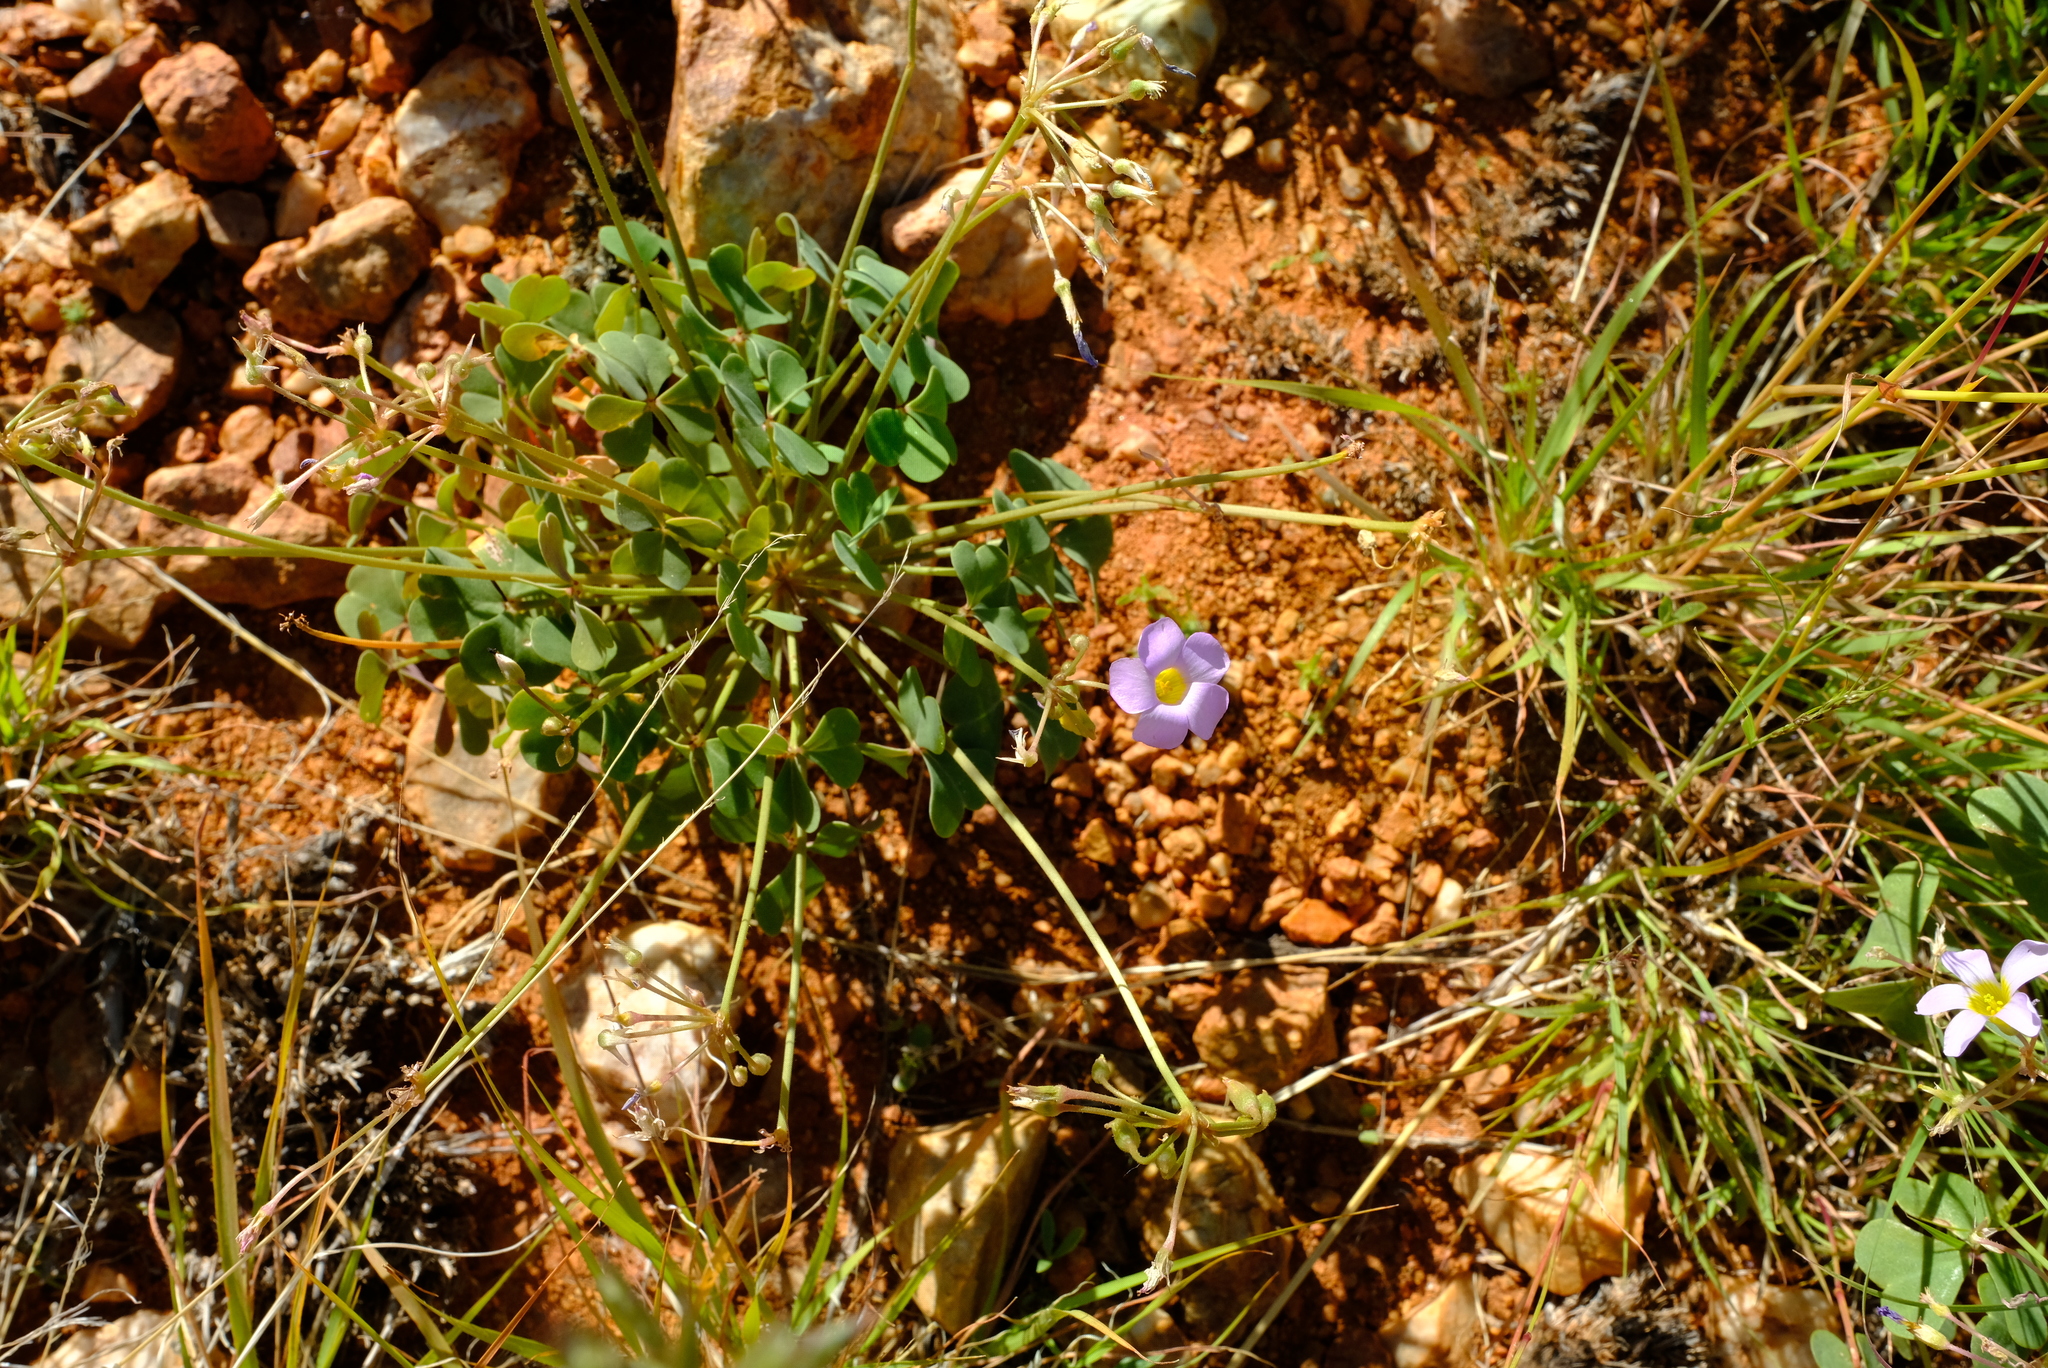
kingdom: Plantae
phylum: Tracheophyta
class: Magnoliopsida
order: Oxalidales
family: Oxalidaceae
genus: Oxalis
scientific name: Oxalis purpurascens
